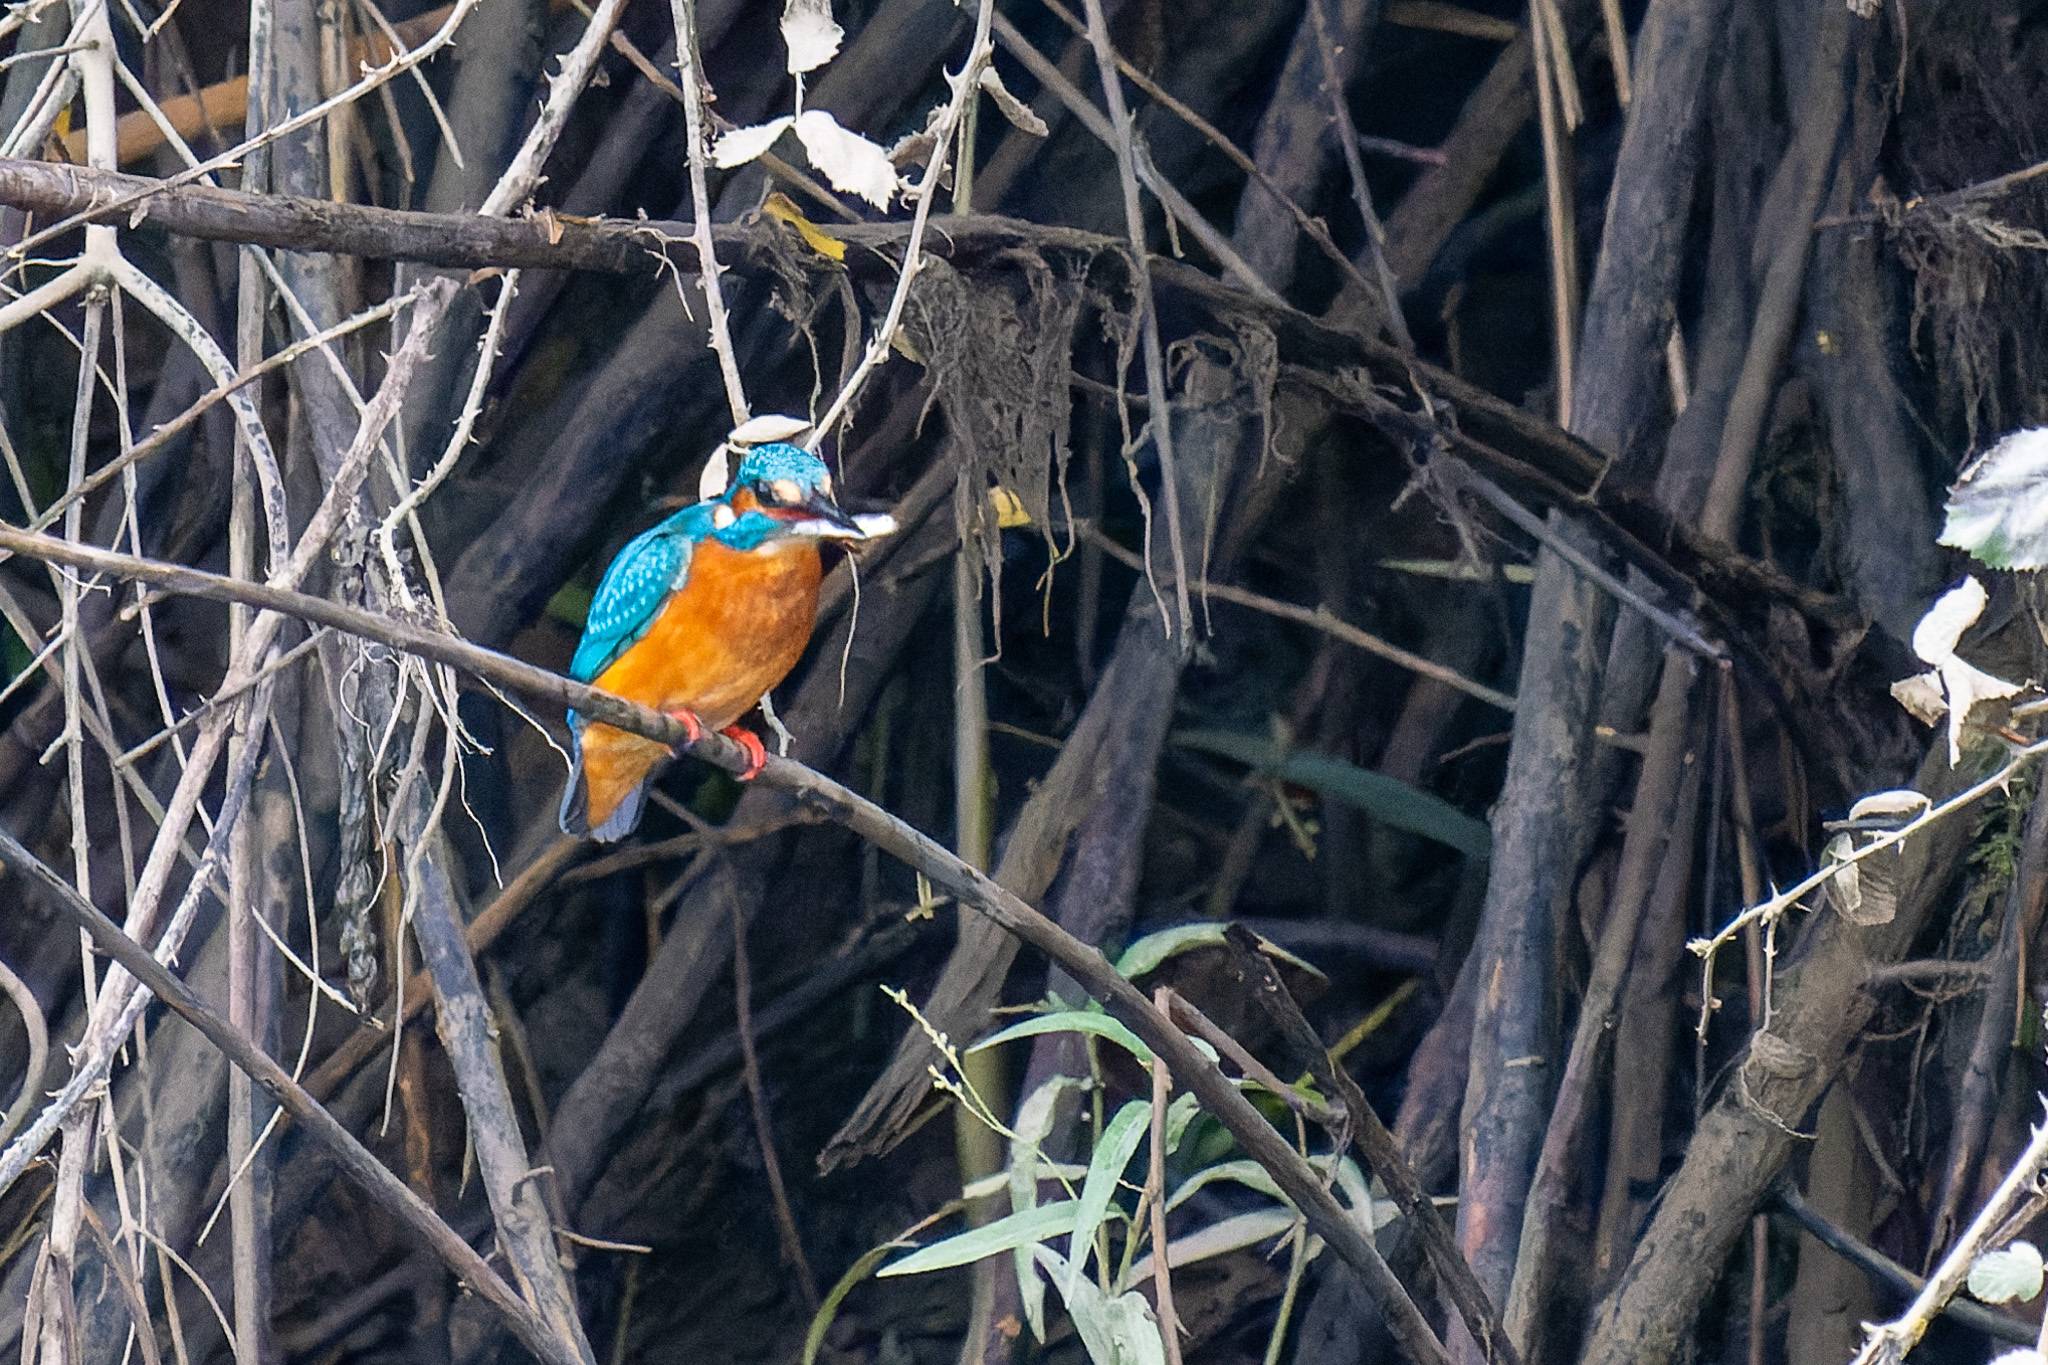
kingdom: Animalia
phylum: Chordata
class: Aves
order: Coraciiformes
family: Alcedinidae
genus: Alcedo
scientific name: Alcedo atthis
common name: Common kingfisher
